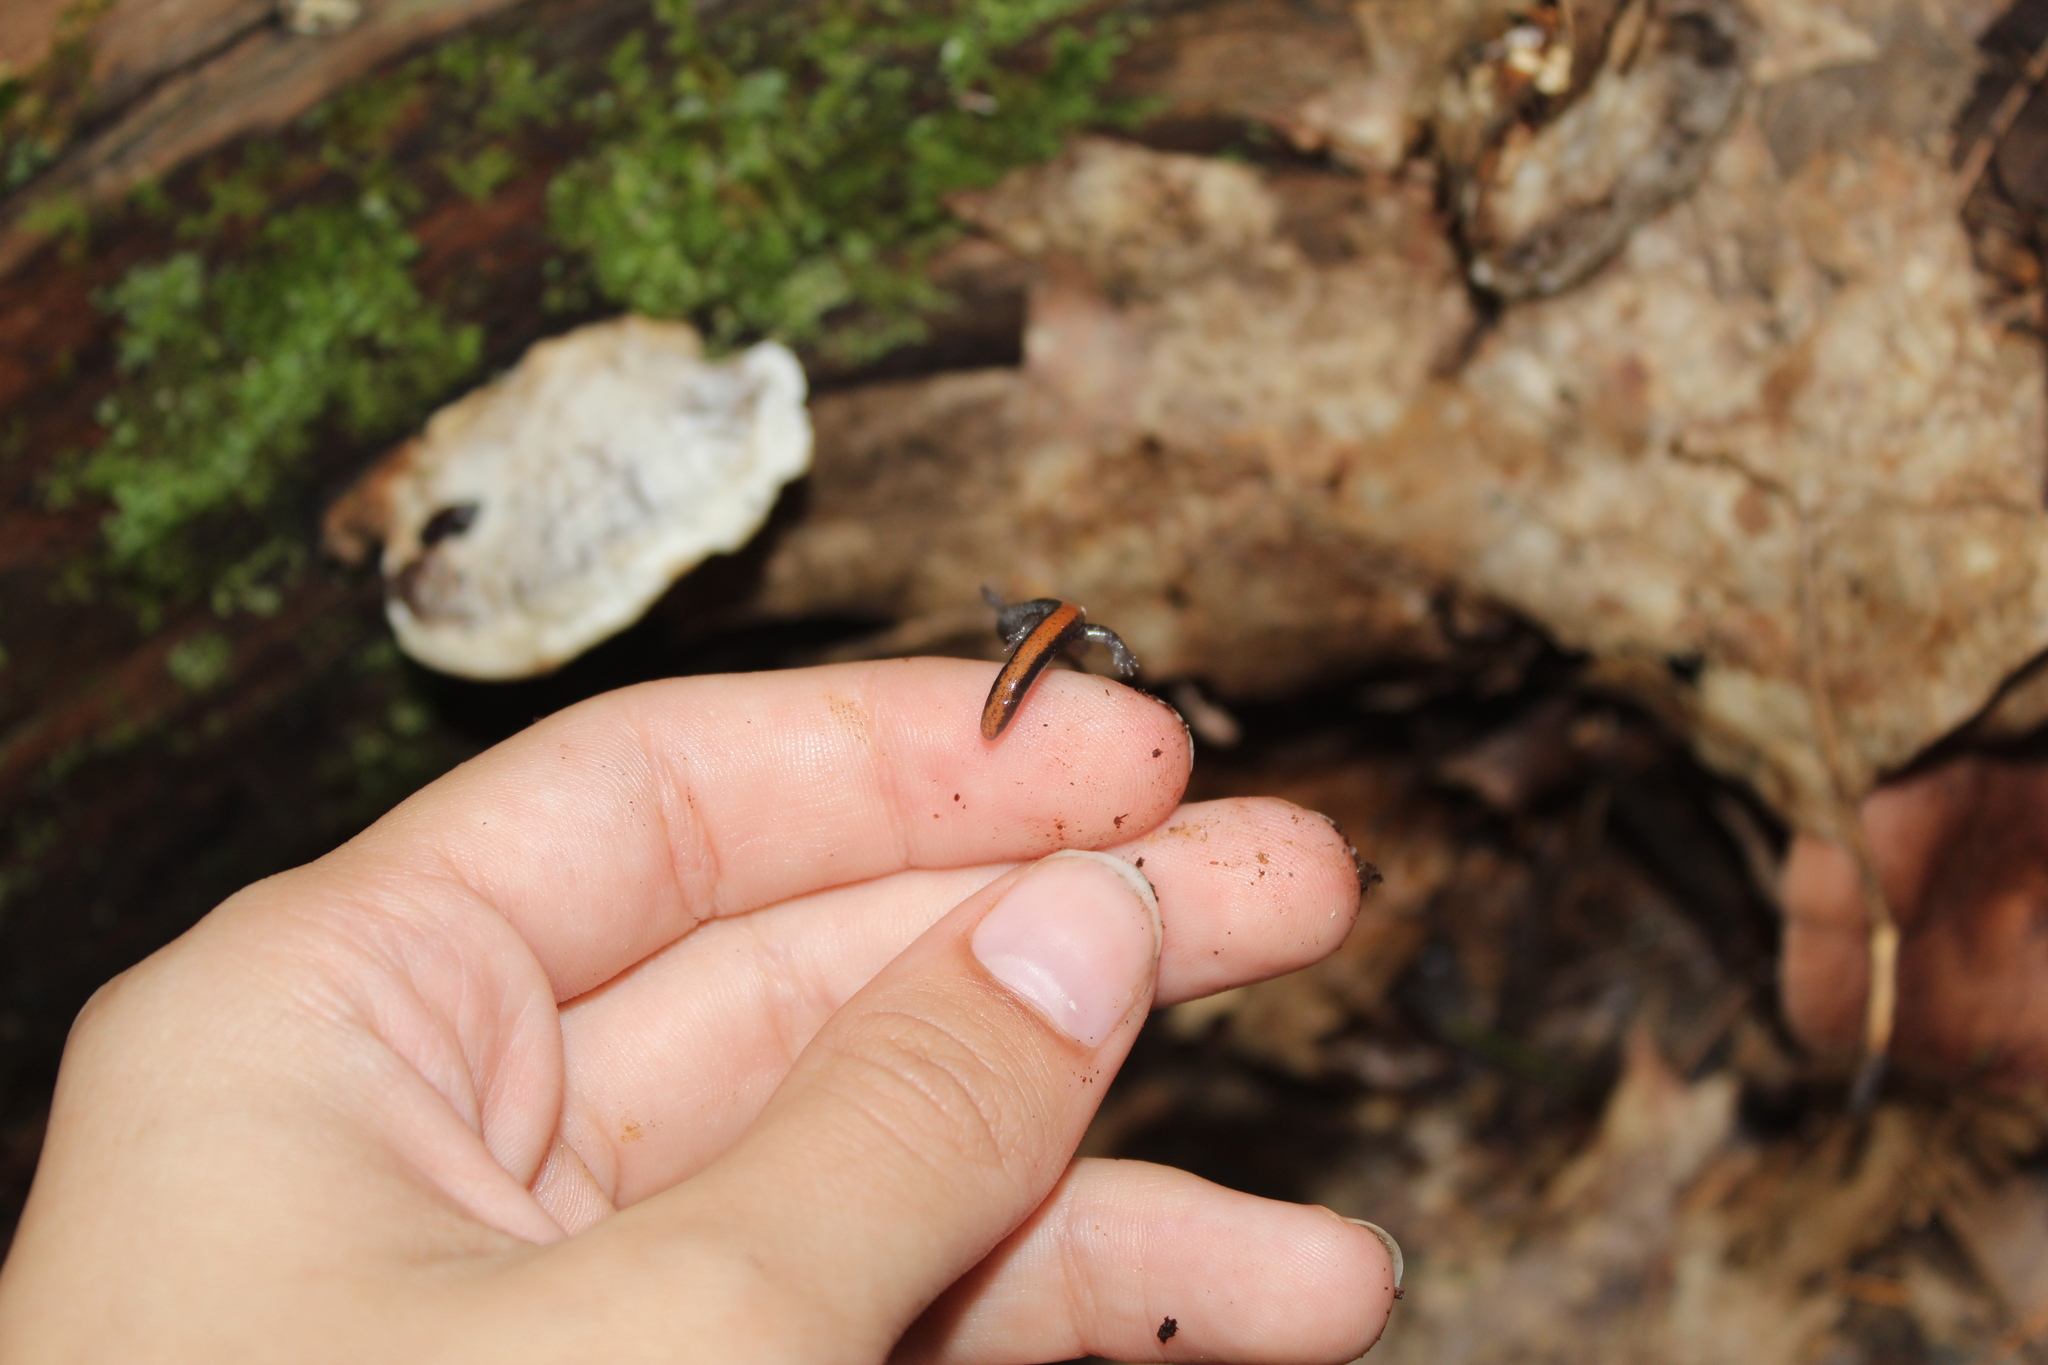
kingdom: Animalia
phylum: Chordata
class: Amphibia
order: Caudata
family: Plethodontidae
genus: Plethodon
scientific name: Plethodon cinereus
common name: Redback salamander
